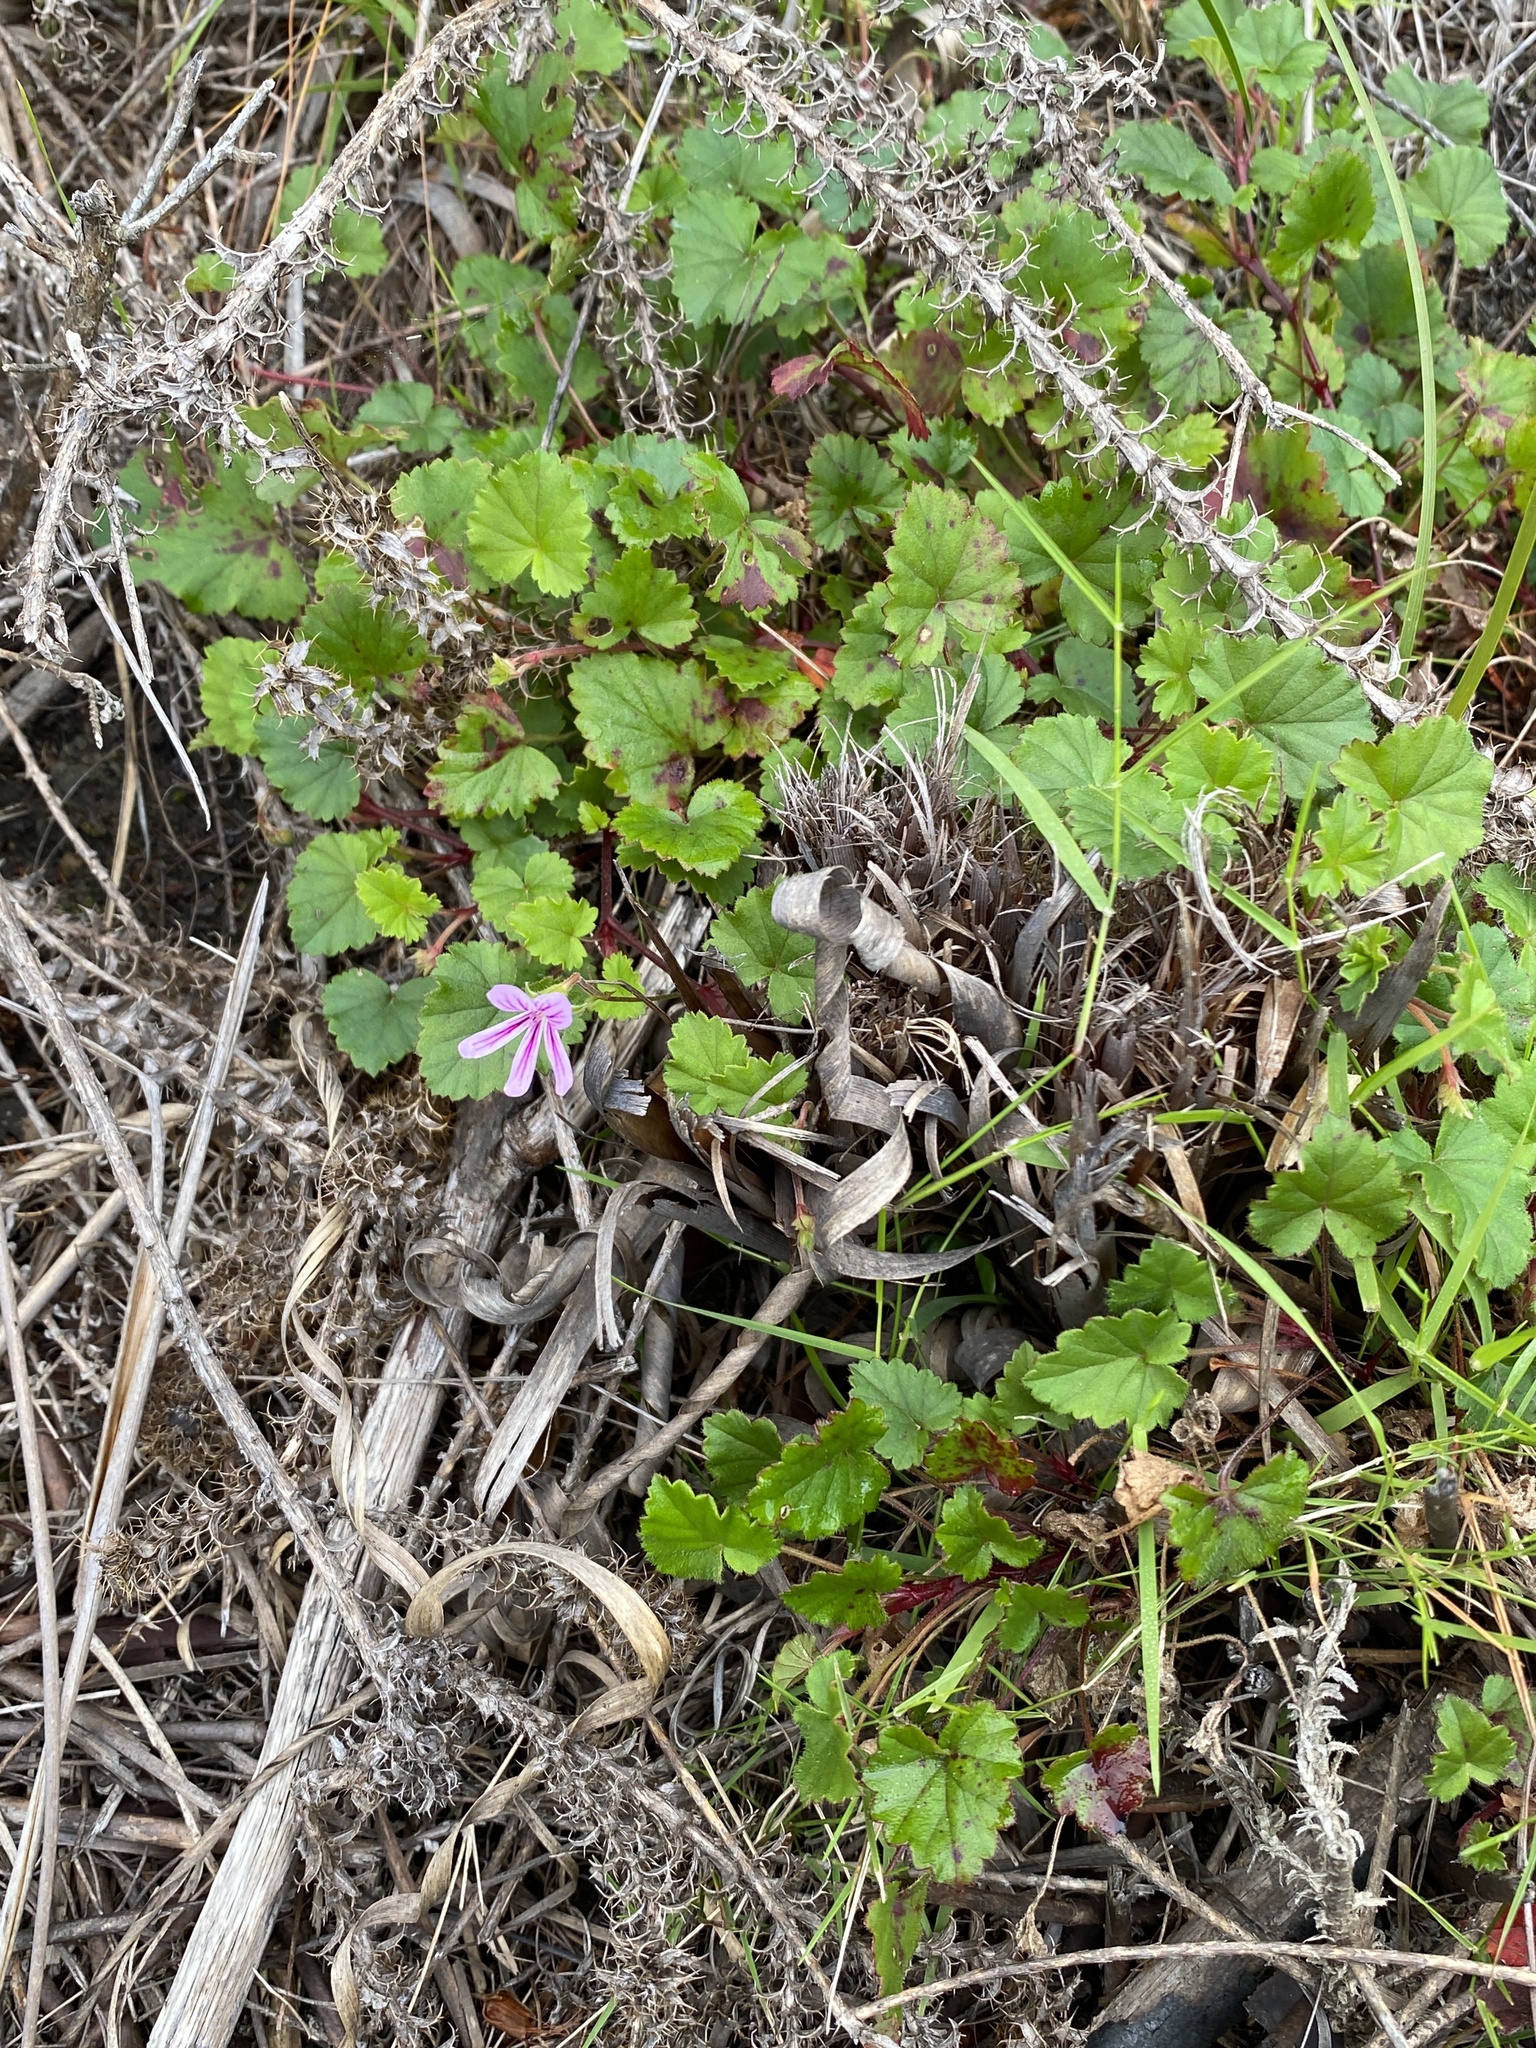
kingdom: Plantae
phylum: Tracheophyta
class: Magnoliopsida
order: Geraniales
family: Geraniaceae
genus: Pelargonium
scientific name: Pelargonium pseudosetulosum
